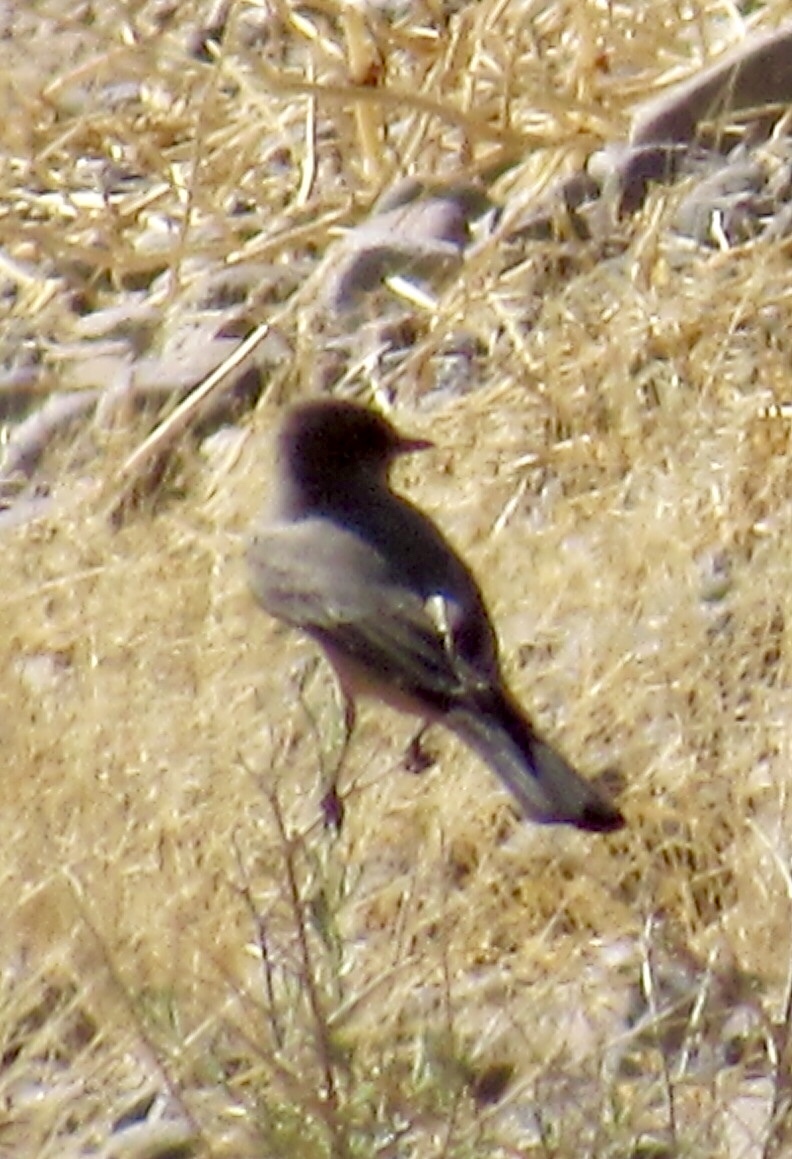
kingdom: Animalia
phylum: Chordata
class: Aves
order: Passeriformes
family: Tyrannidae
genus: Sayornis
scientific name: Sayornis saya
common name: Say's phoebe
